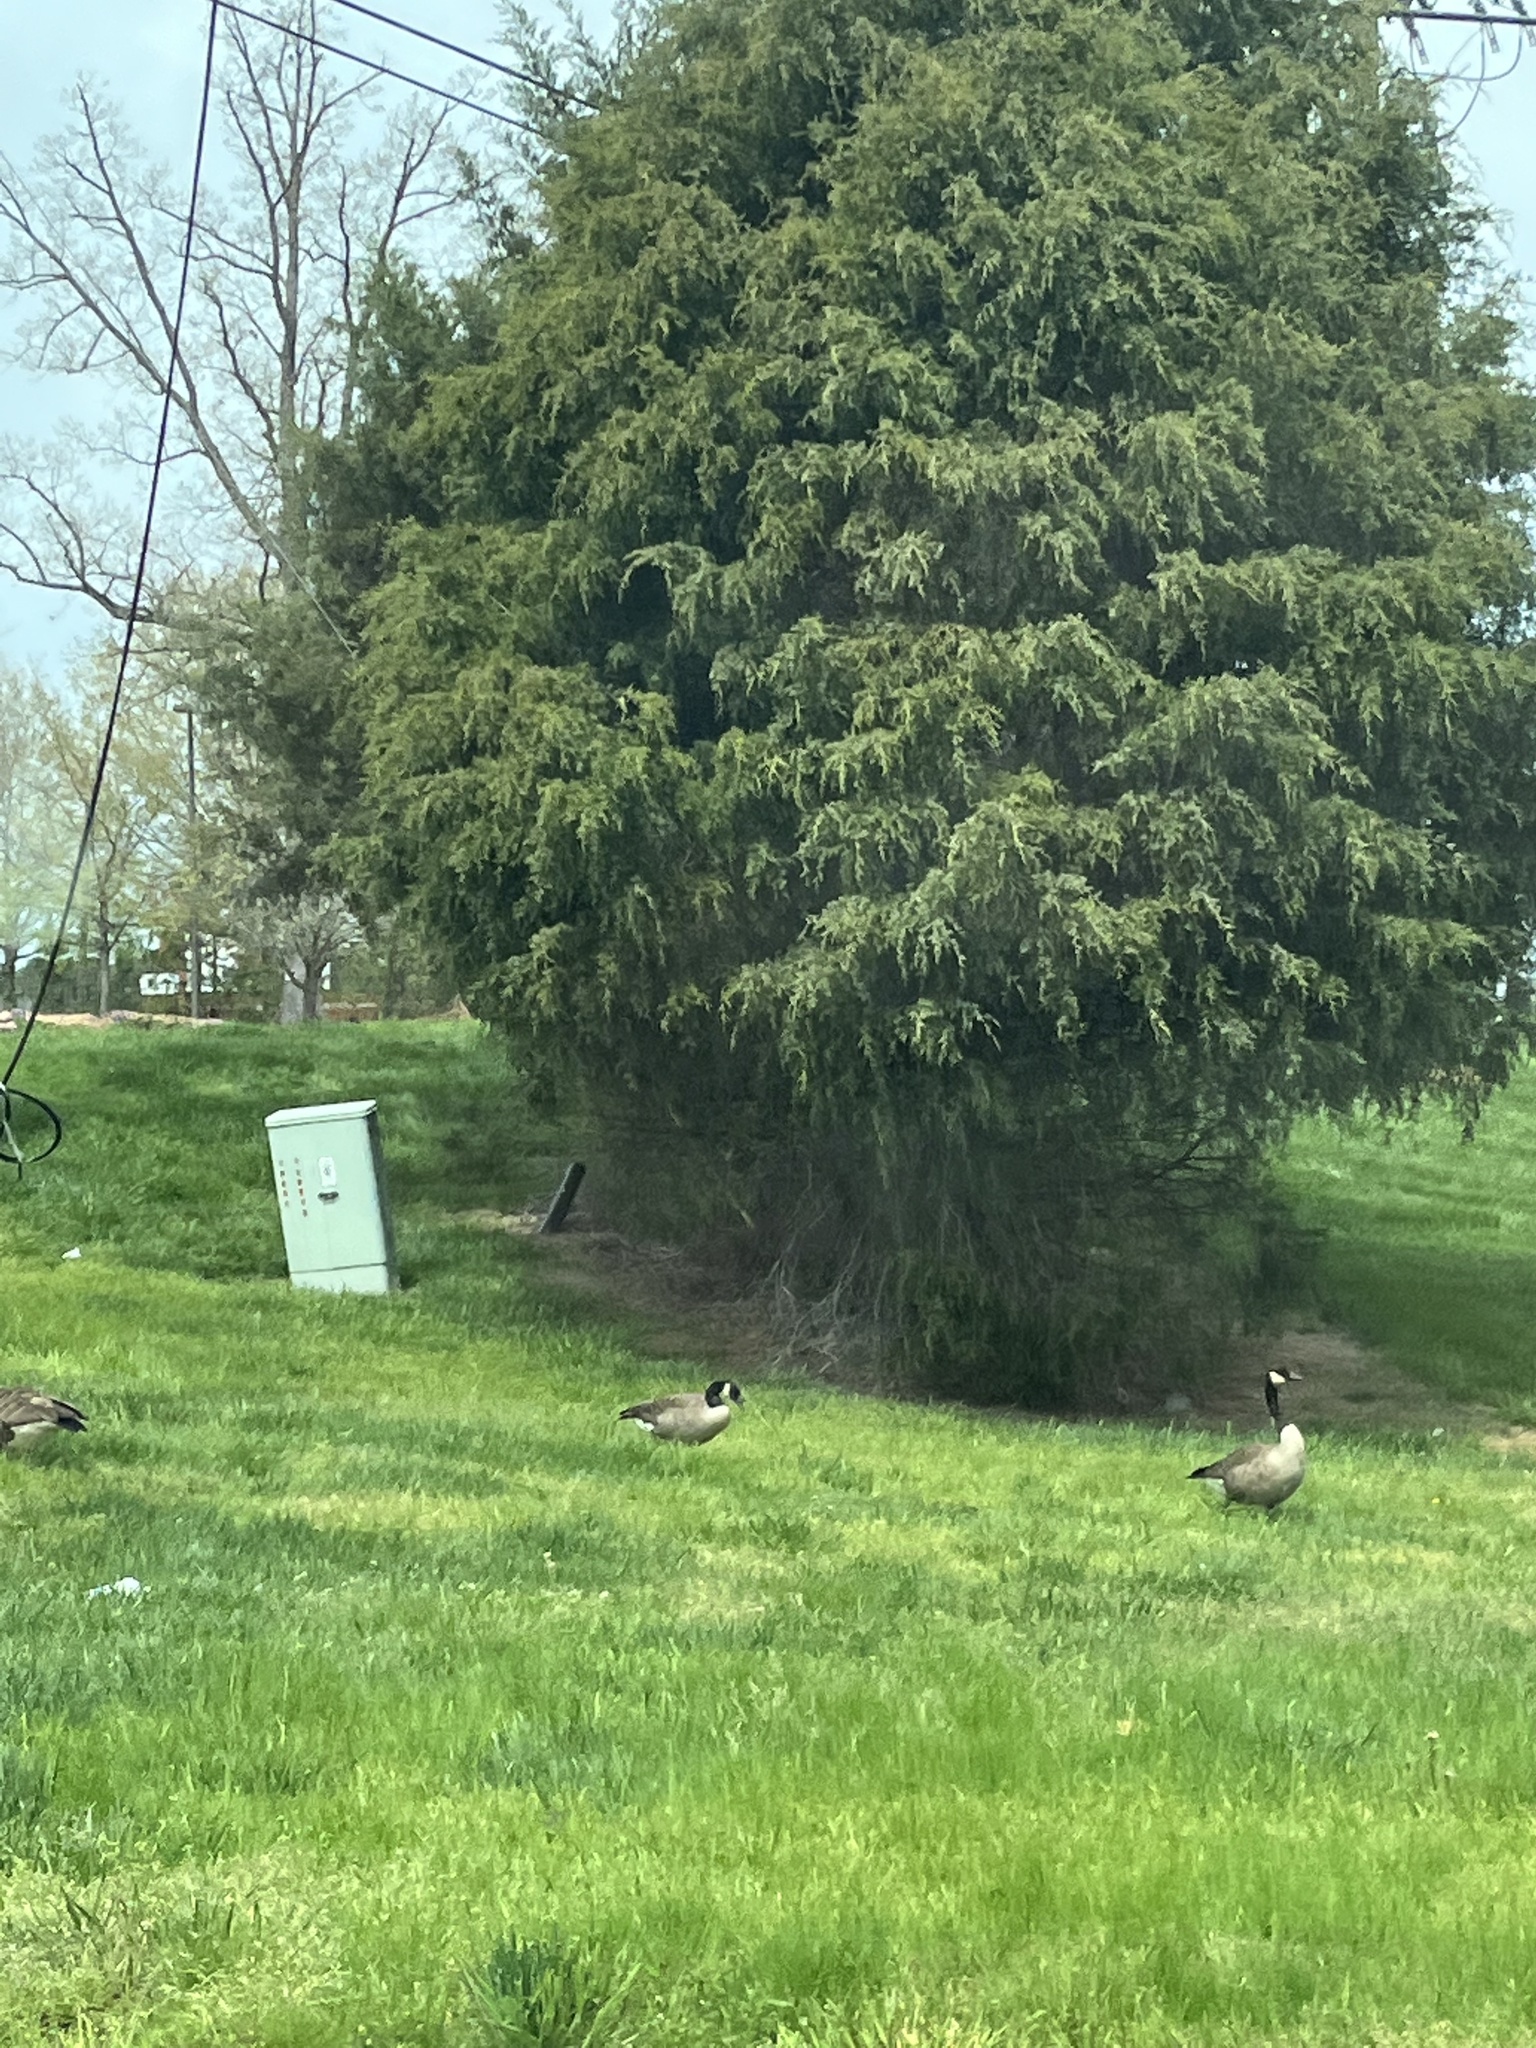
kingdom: Animalia
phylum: Chordata
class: Aves
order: Anseriformes
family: Anatidae
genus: Branta
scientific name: Branta canadensis
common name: Canada goose
